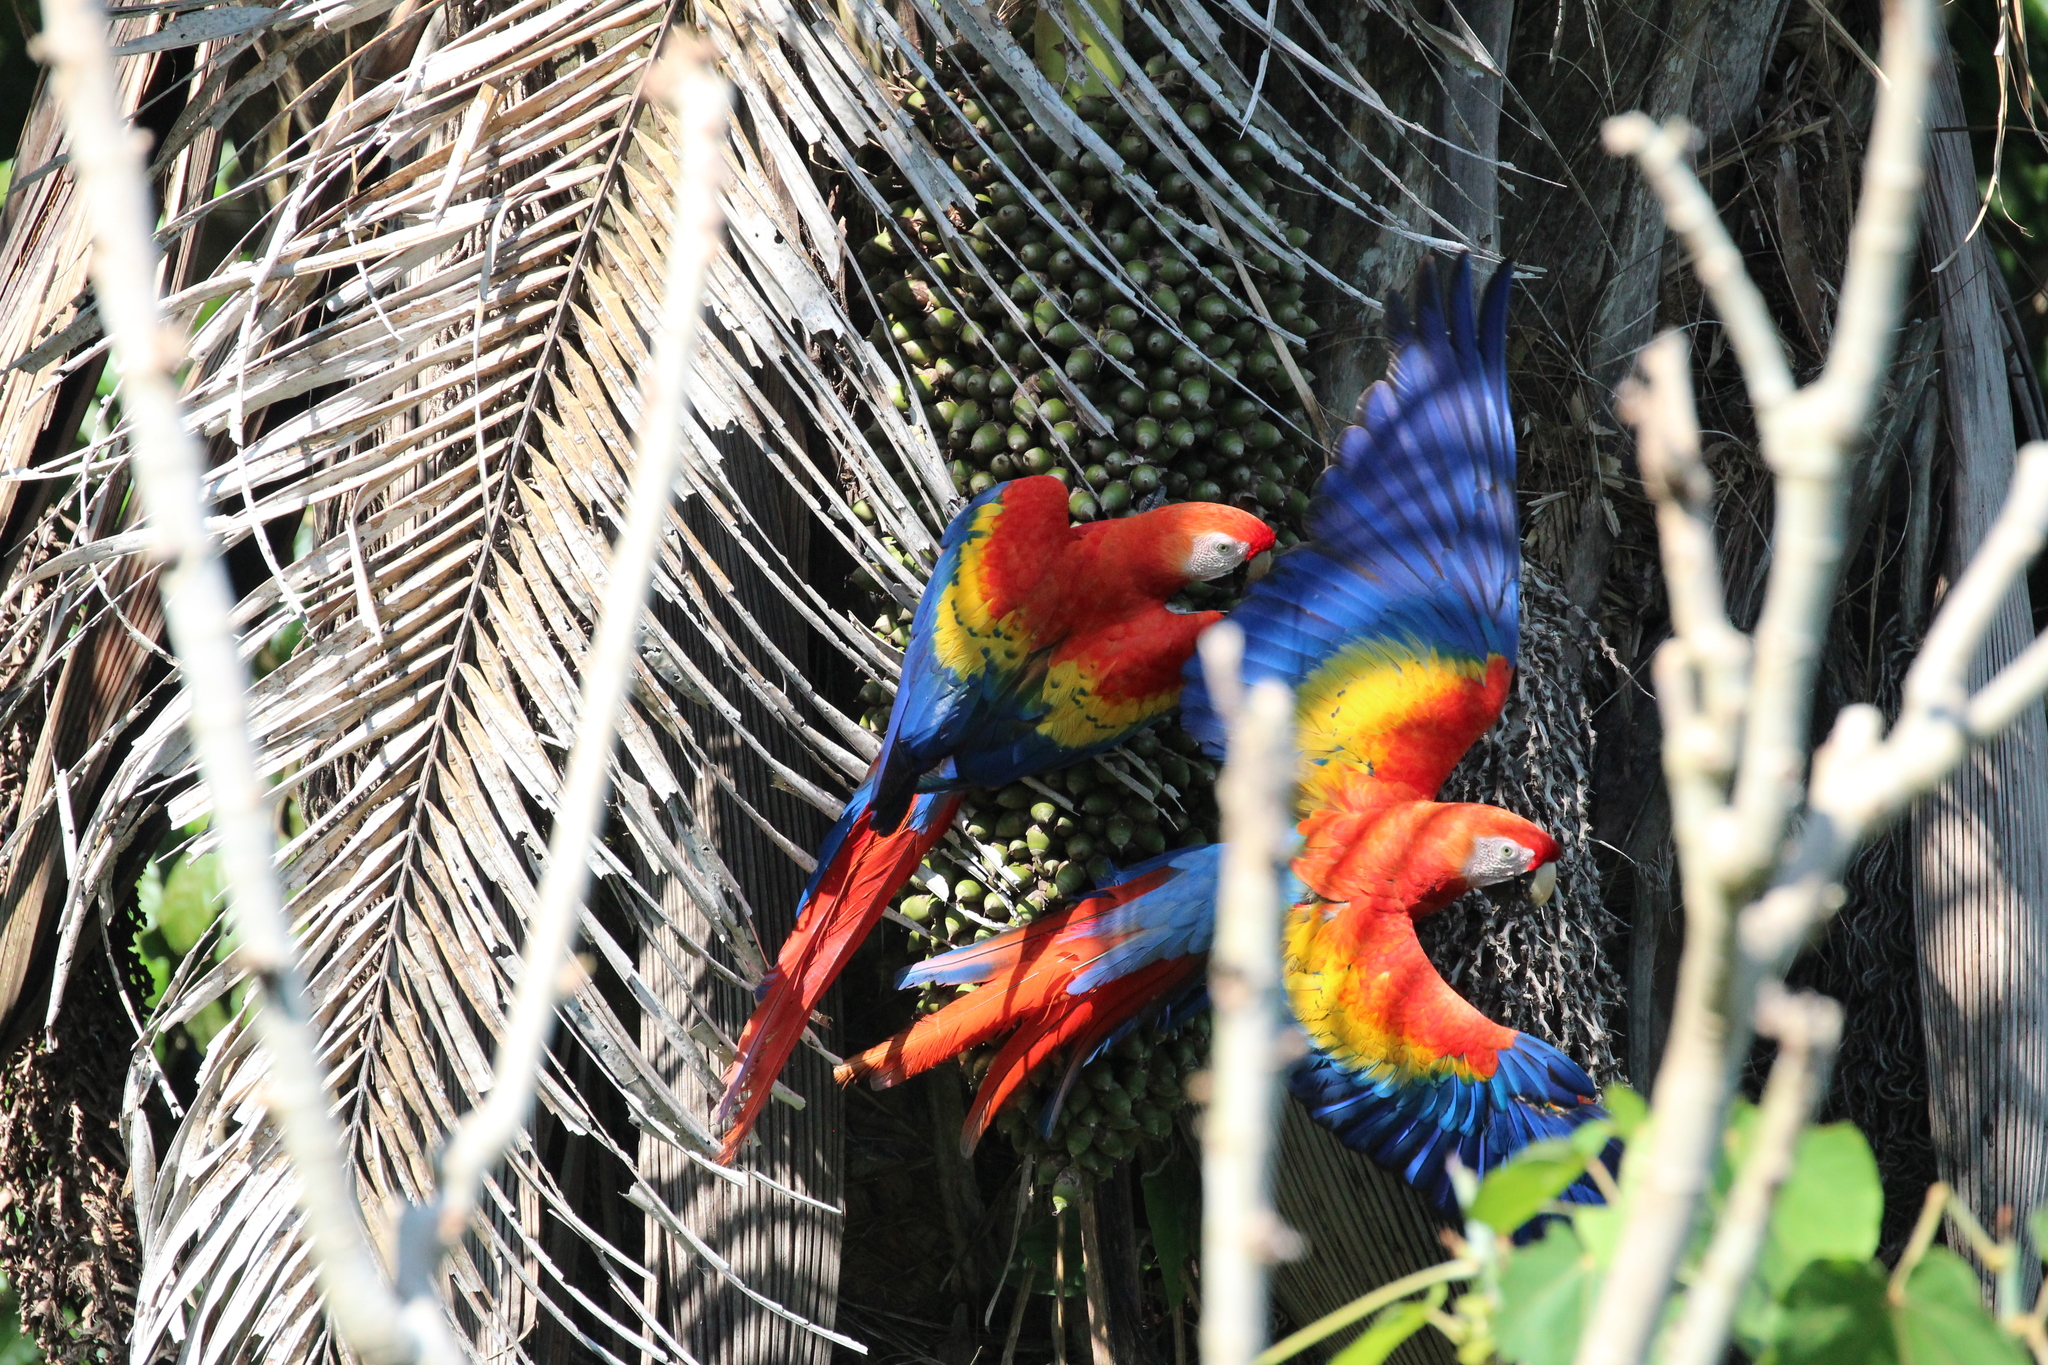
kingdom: Animalia
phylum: Chordata
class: Aves
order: Psittaciformes
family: Psittacidae
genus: Ara
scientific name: Ara macao
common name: Scarlet macaw
